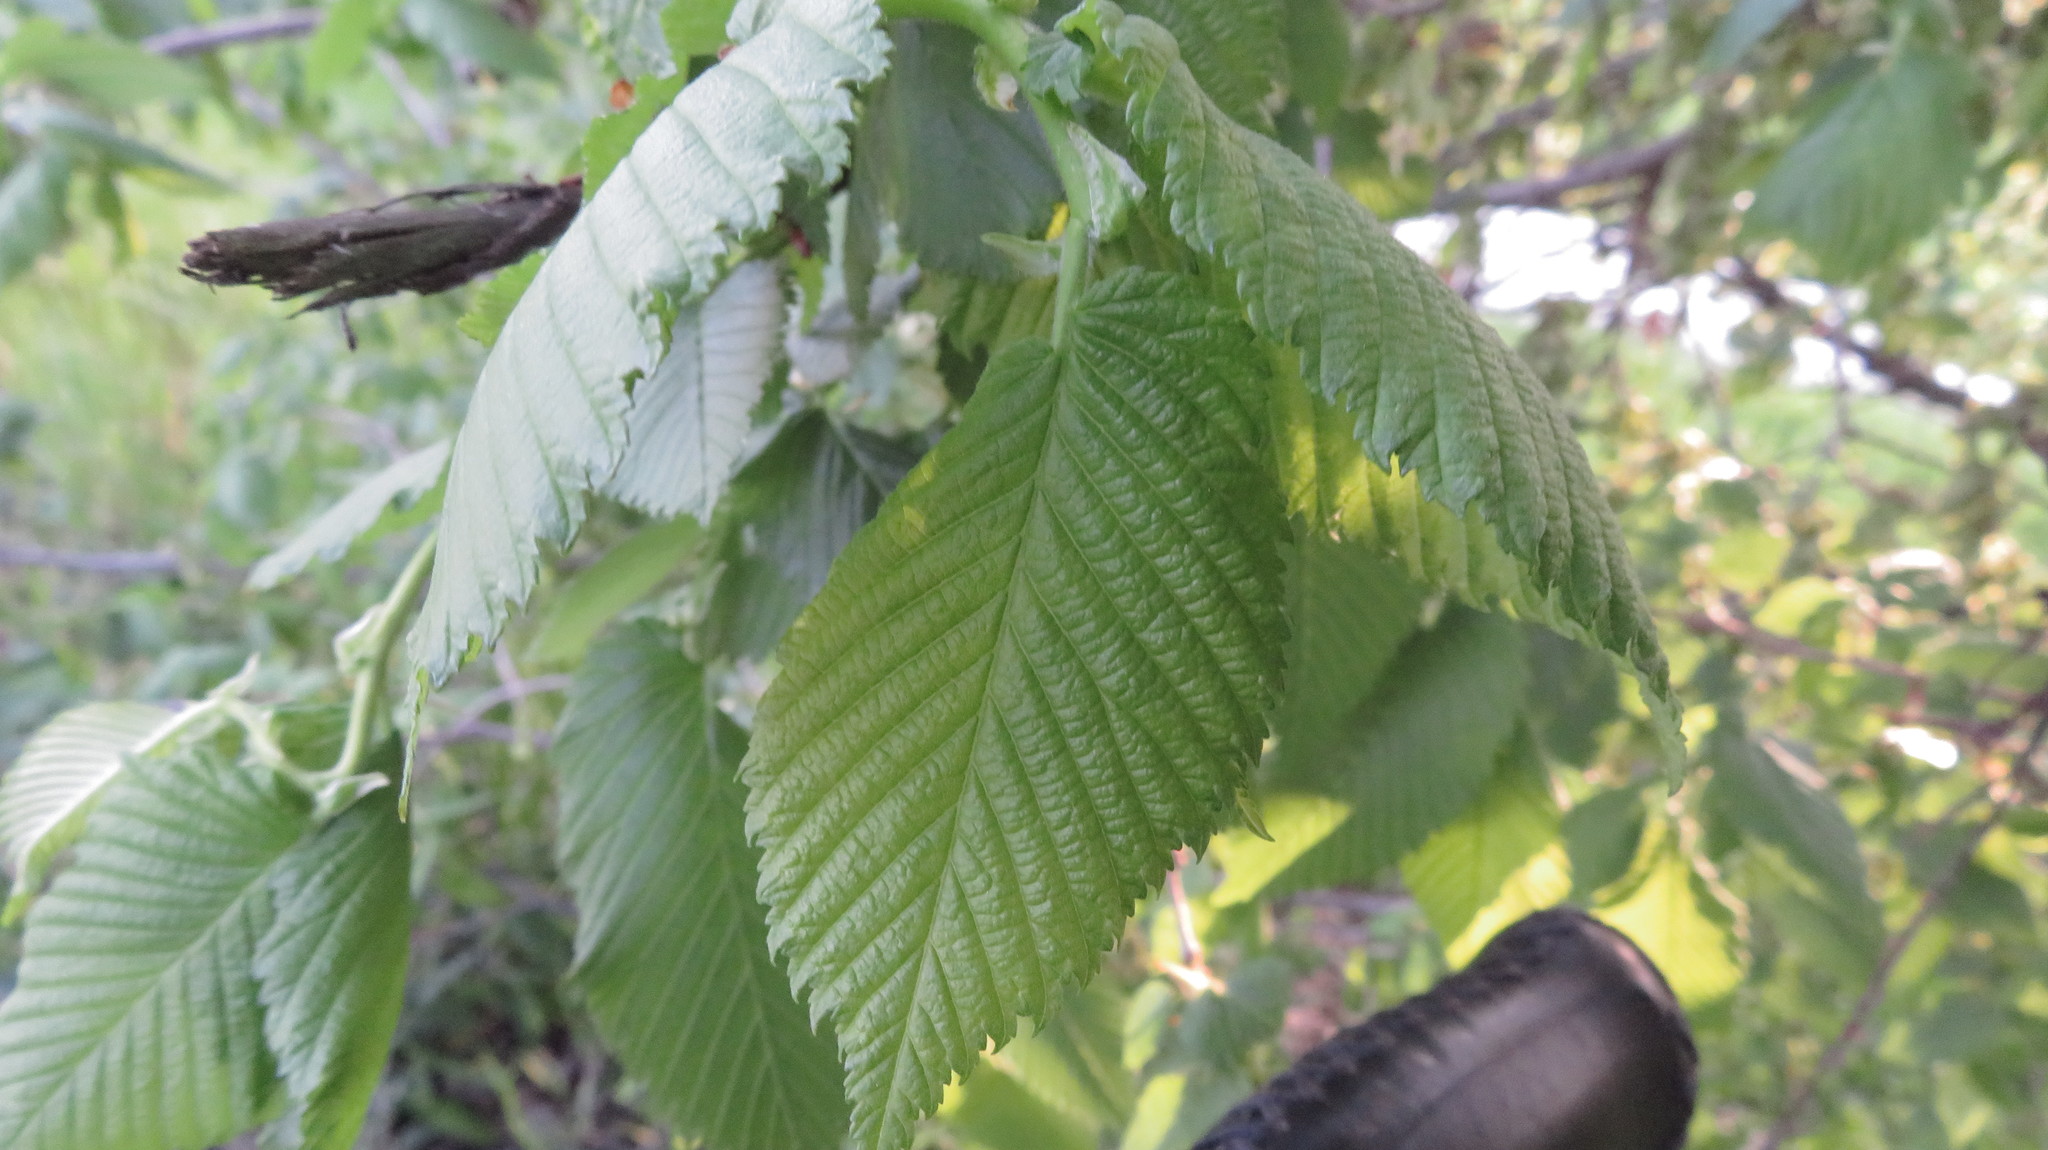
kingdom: Plantae
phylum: Tracheophyta
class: Magnoliopsida
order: Rosales
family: Ulmaceae
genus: Ulmus
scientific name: Ulmus americana
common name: American elm
